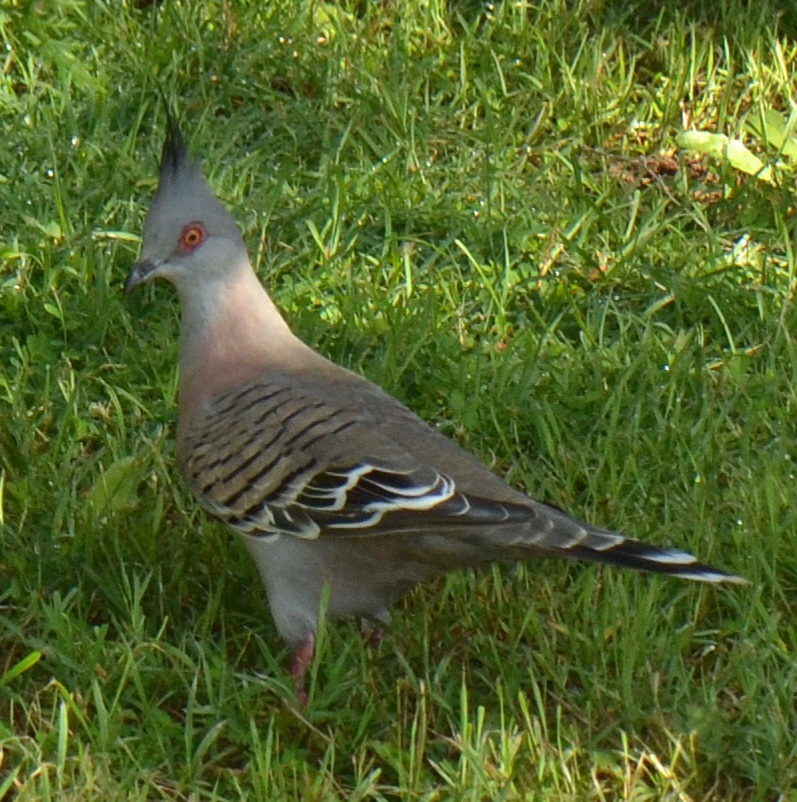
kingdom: Animalia
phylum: Chordata
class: Aves
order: Columbiformes
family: Columbidae
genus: Ocyphaps
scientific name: Ocyphaps lophotes
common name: Crested pigeon
